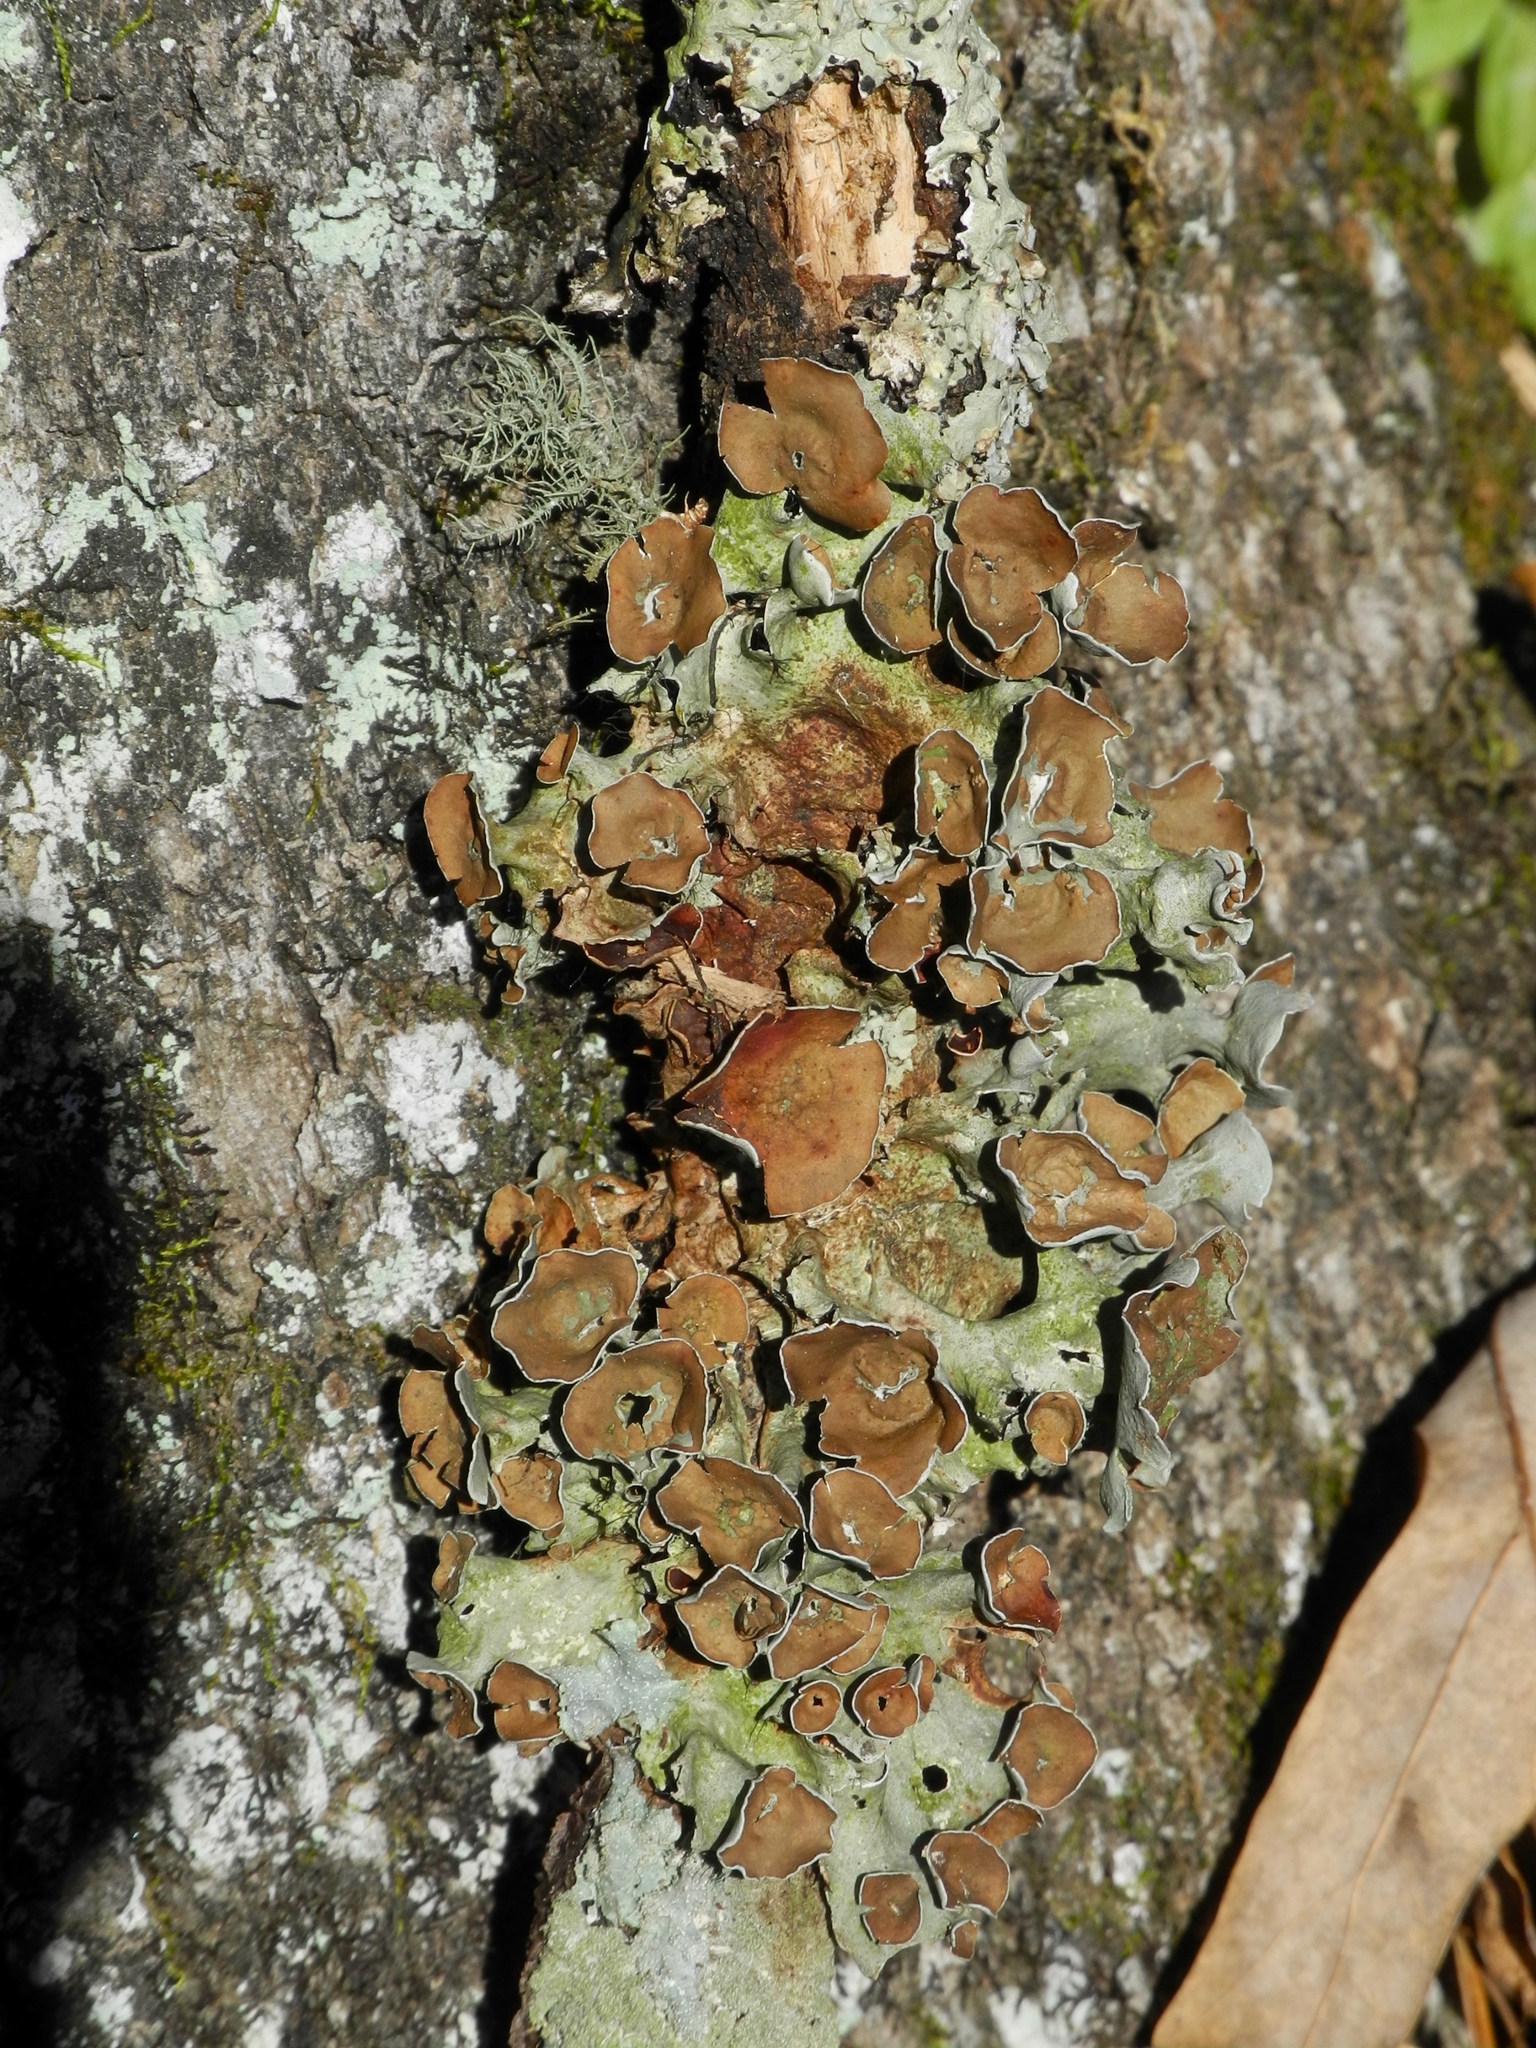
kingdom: Fungi
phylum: Ascomycota
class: Lecanoromycetes
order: Lecanorales
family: Parmeliaceae
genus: Parmotrema
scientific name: Parmotrema perforatum
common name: Perforated ruffle lichen
